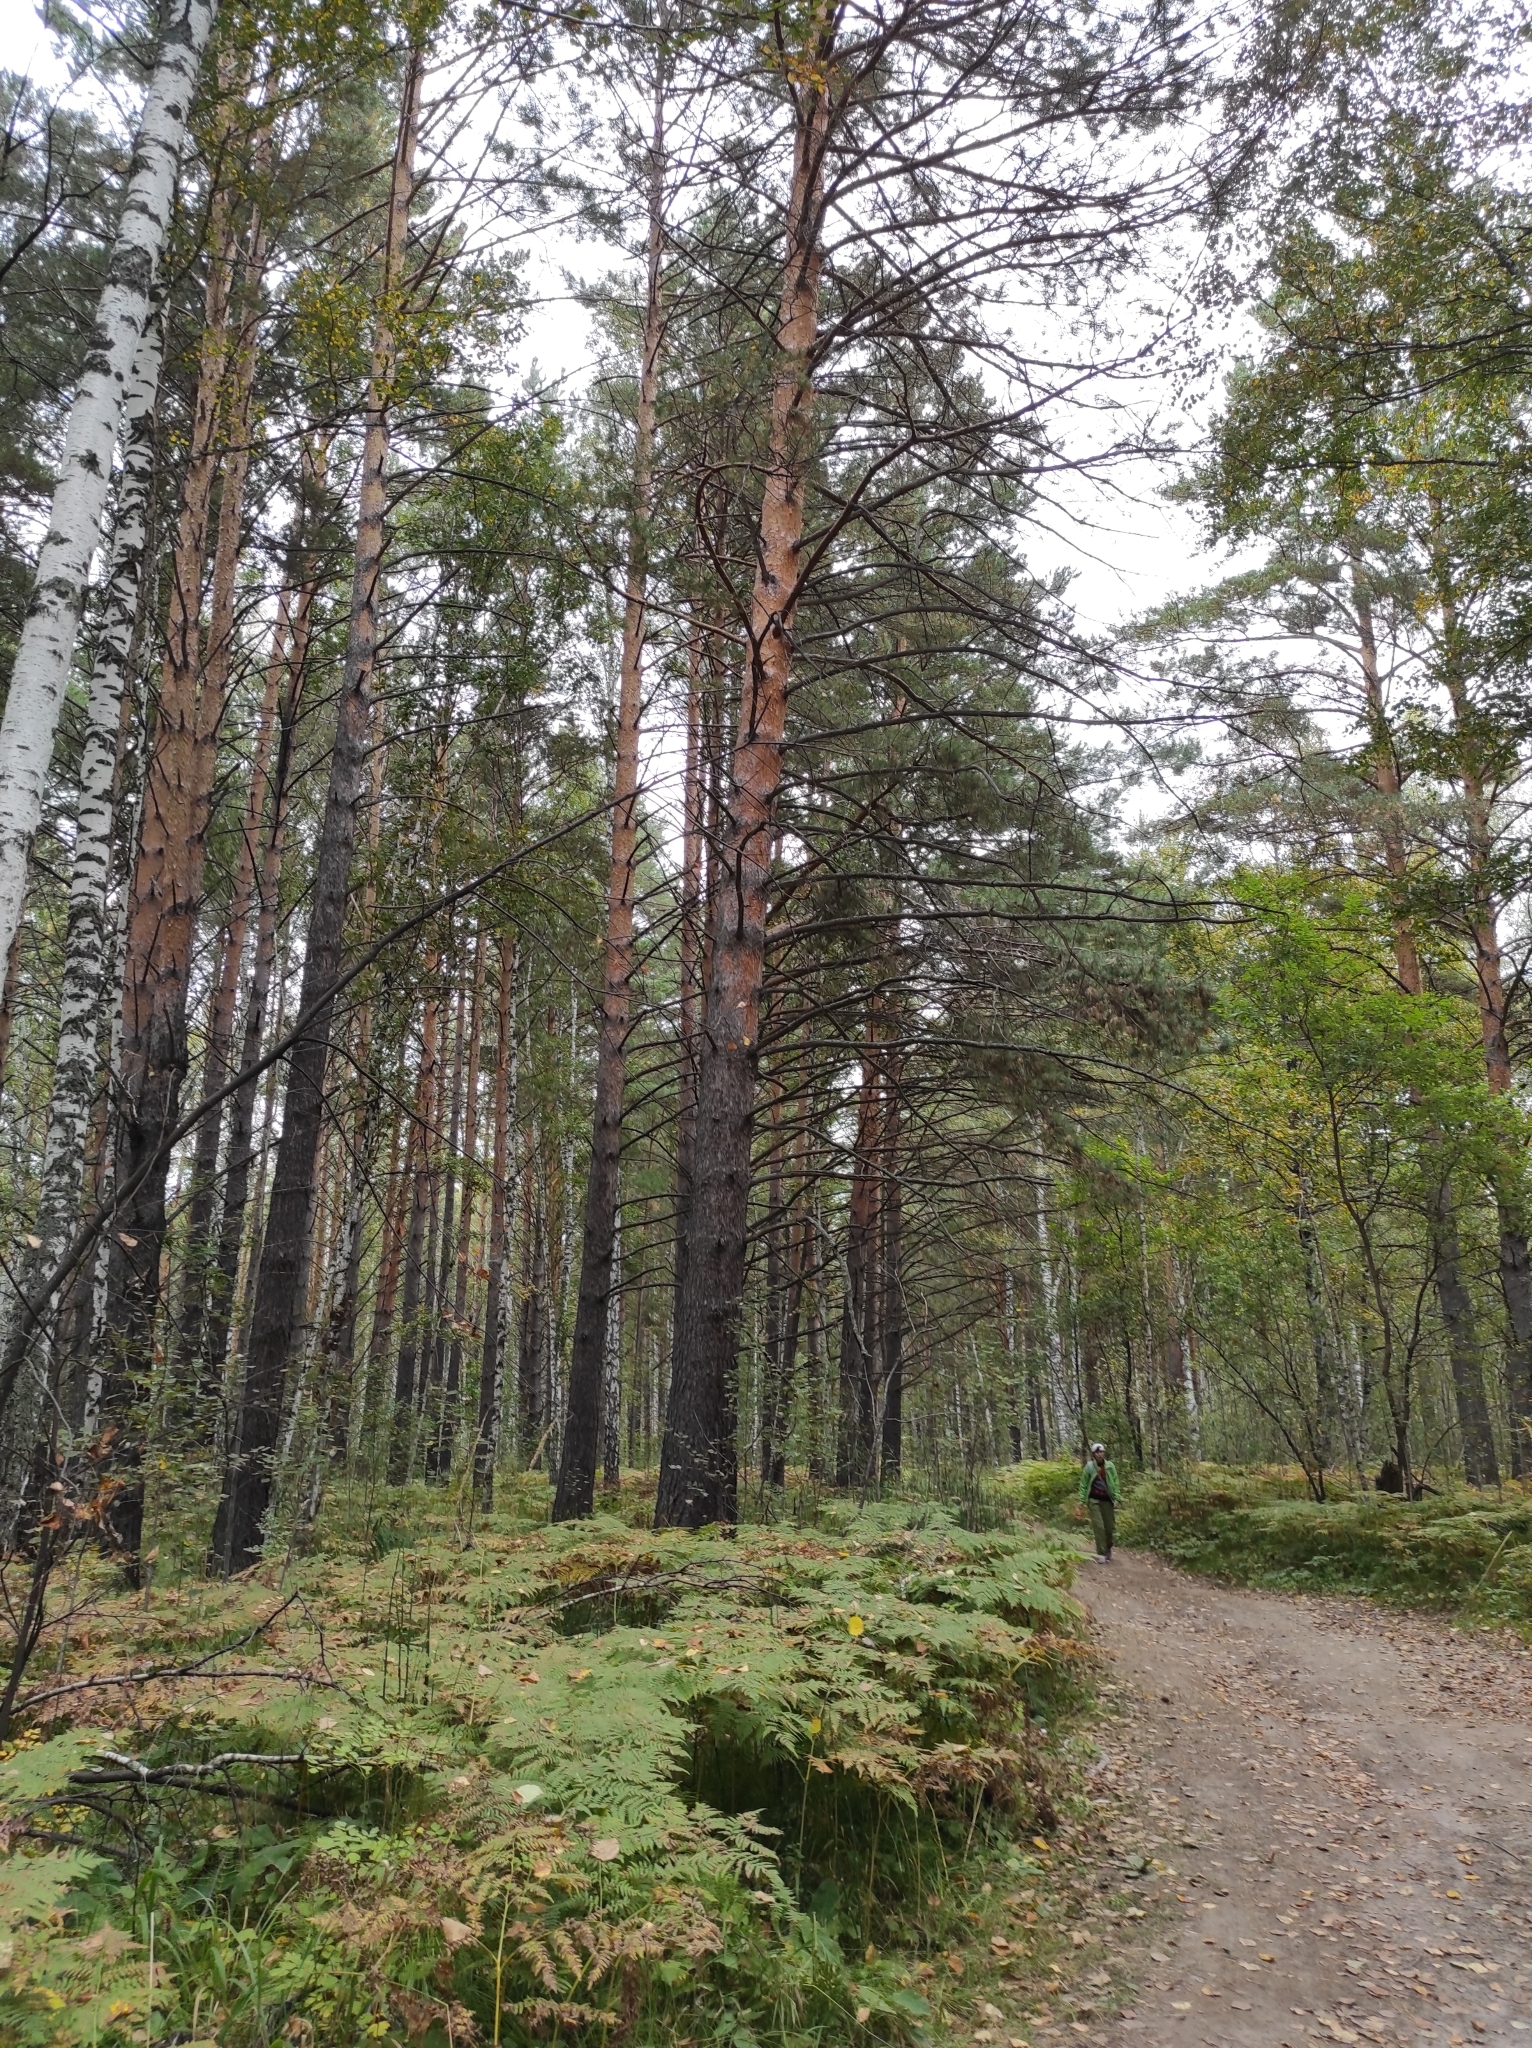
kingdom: Plantae
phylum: Tracheophyta
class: Pinopsida
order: Pinales
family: Pinaceae
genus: Pinus
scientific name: Pinus sylvestris
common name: Scots pine
